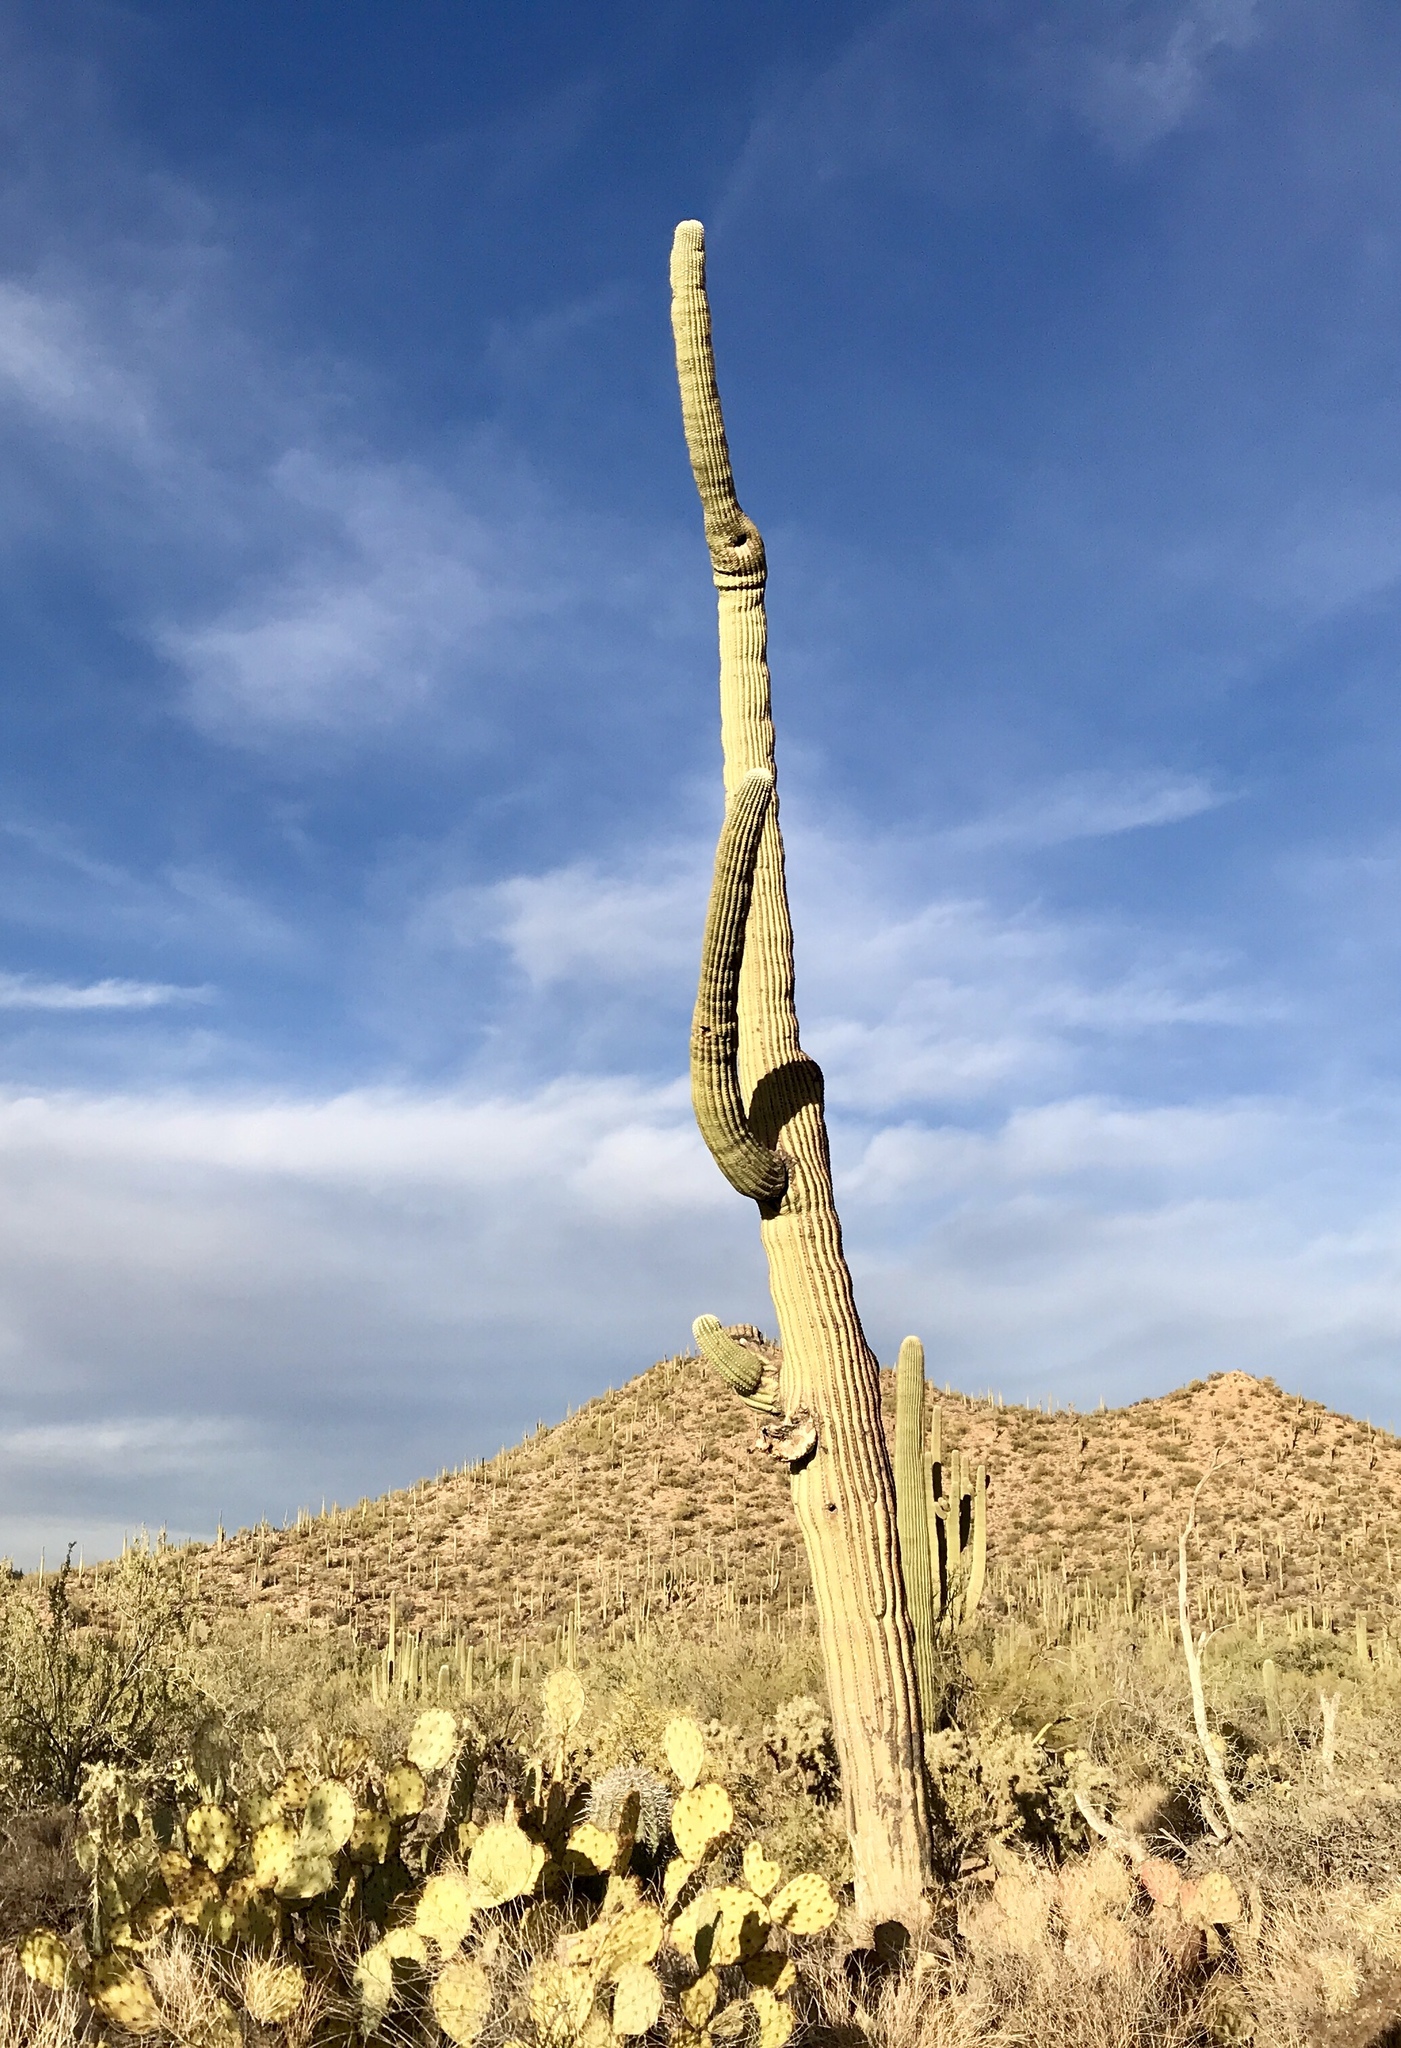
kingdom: Plantae
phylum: Tracheophyta
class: Magnoliopsida
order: Caryophyllales
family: Cactaceae
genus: Carnegiea
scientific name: Carnegiea gigantea
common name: Saguaro
